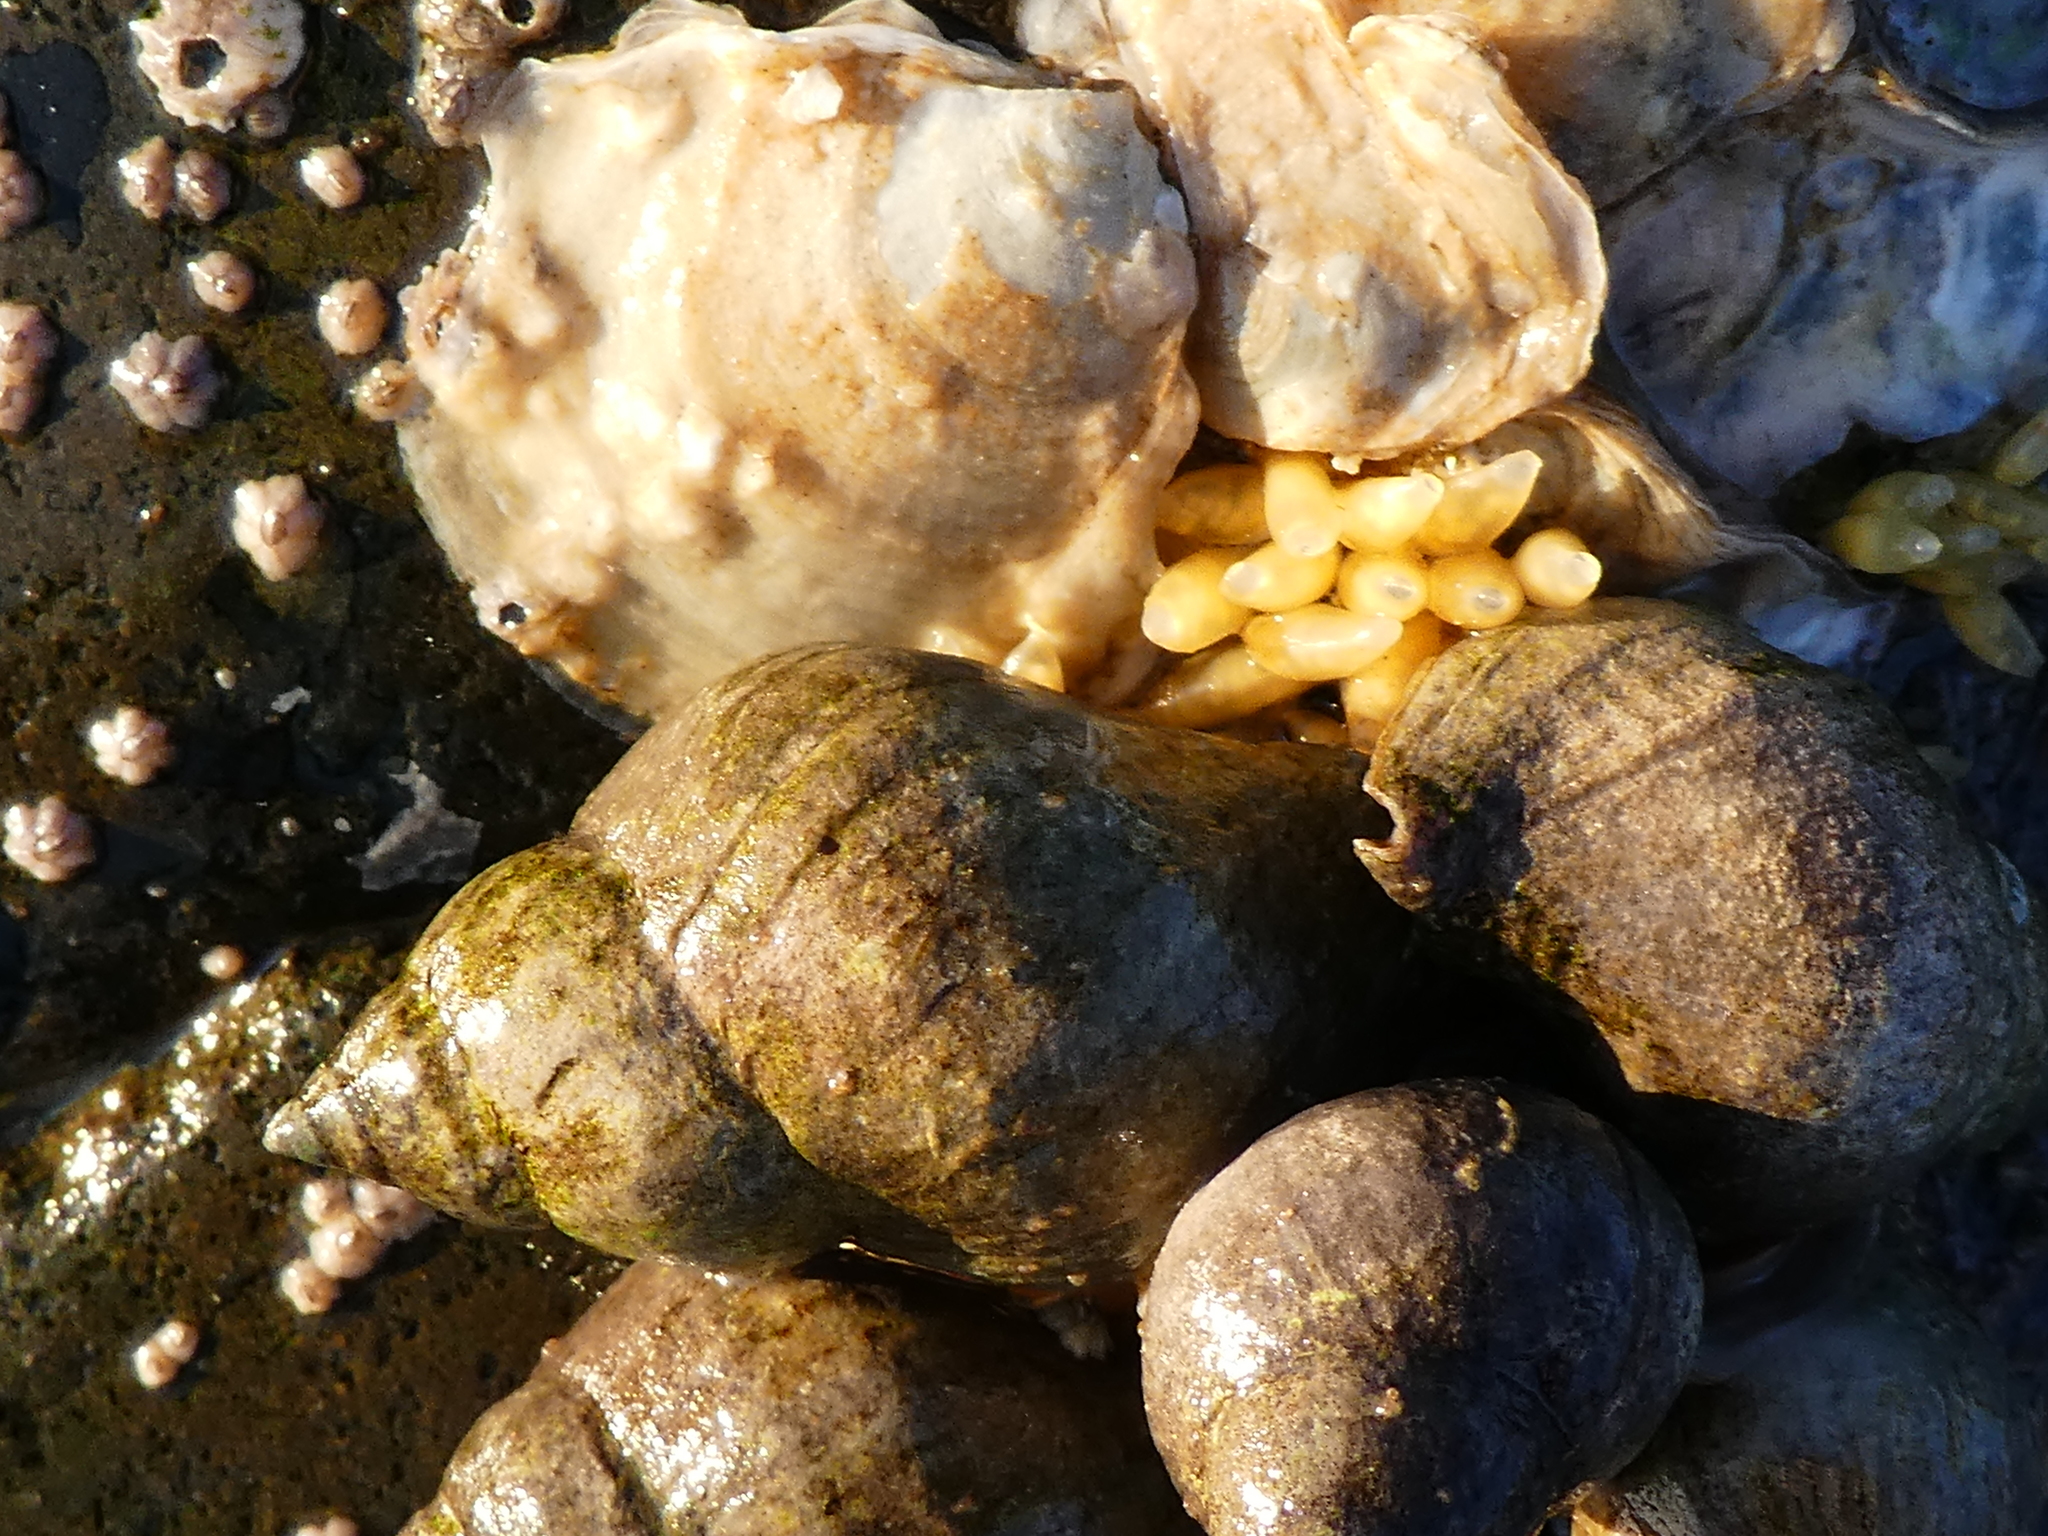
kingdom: Animalia
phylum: Mollusca
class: Gastropoda
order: Neogastropoda
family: Muricidae
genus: Nucella
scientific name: Nucella lamellosa
